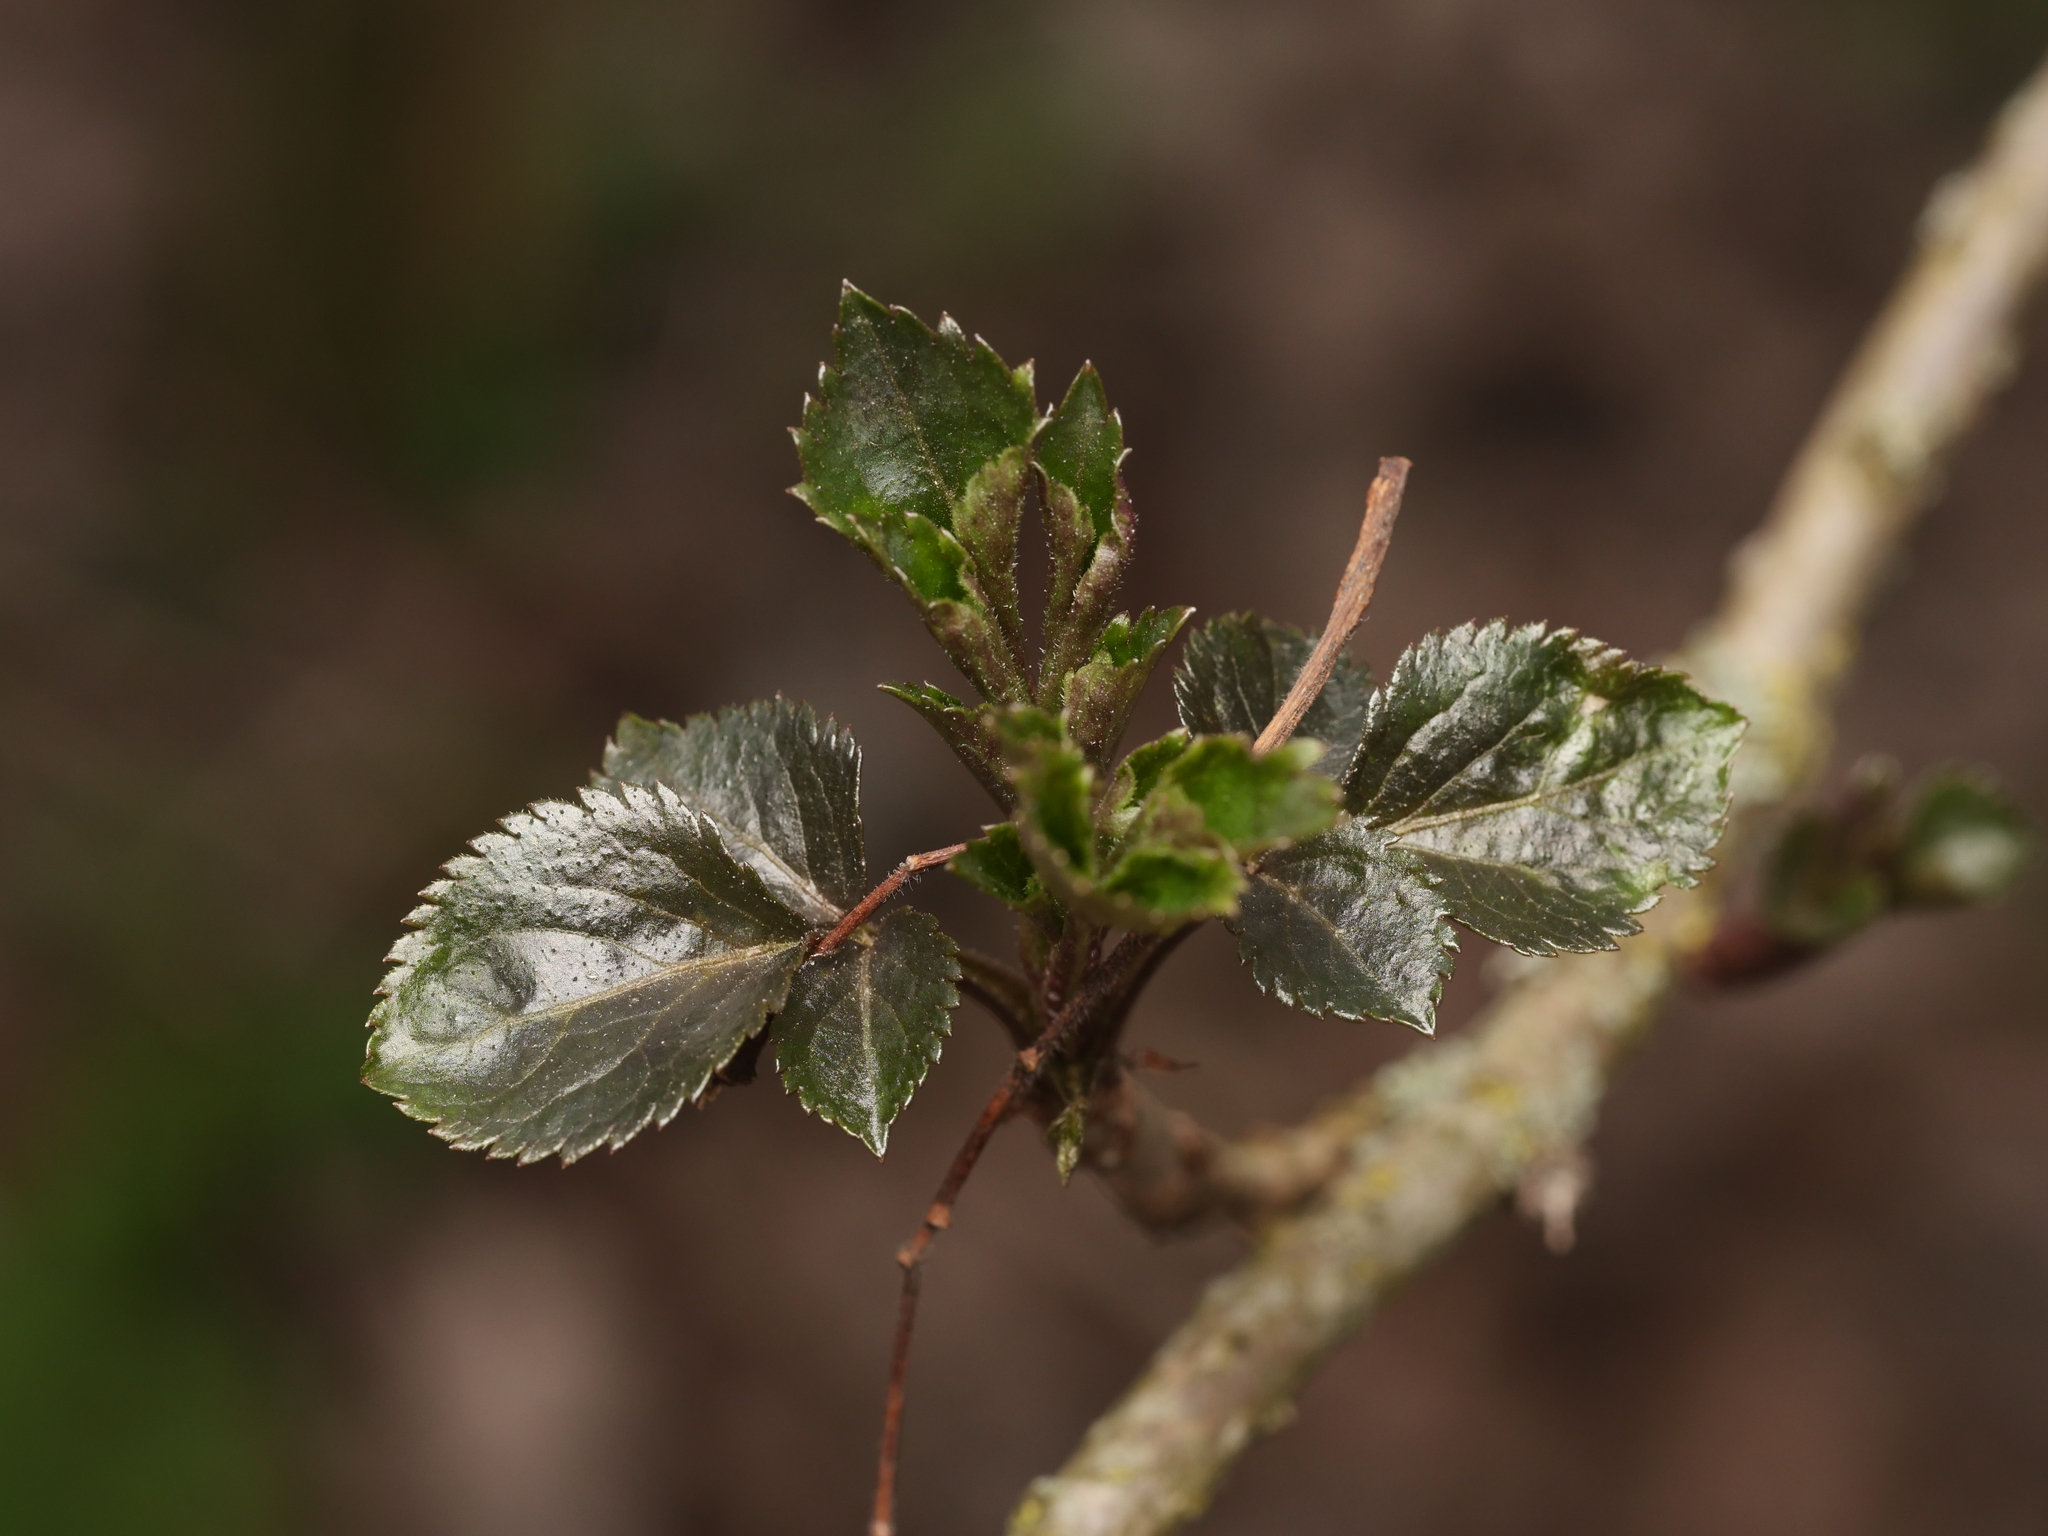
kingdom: Plantae
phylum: Tracheophyta
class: Magnoliopsida
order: Dipsacales
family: Viburnaceae
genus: Sambucus
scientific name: Sambucus nigra
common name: Elder
